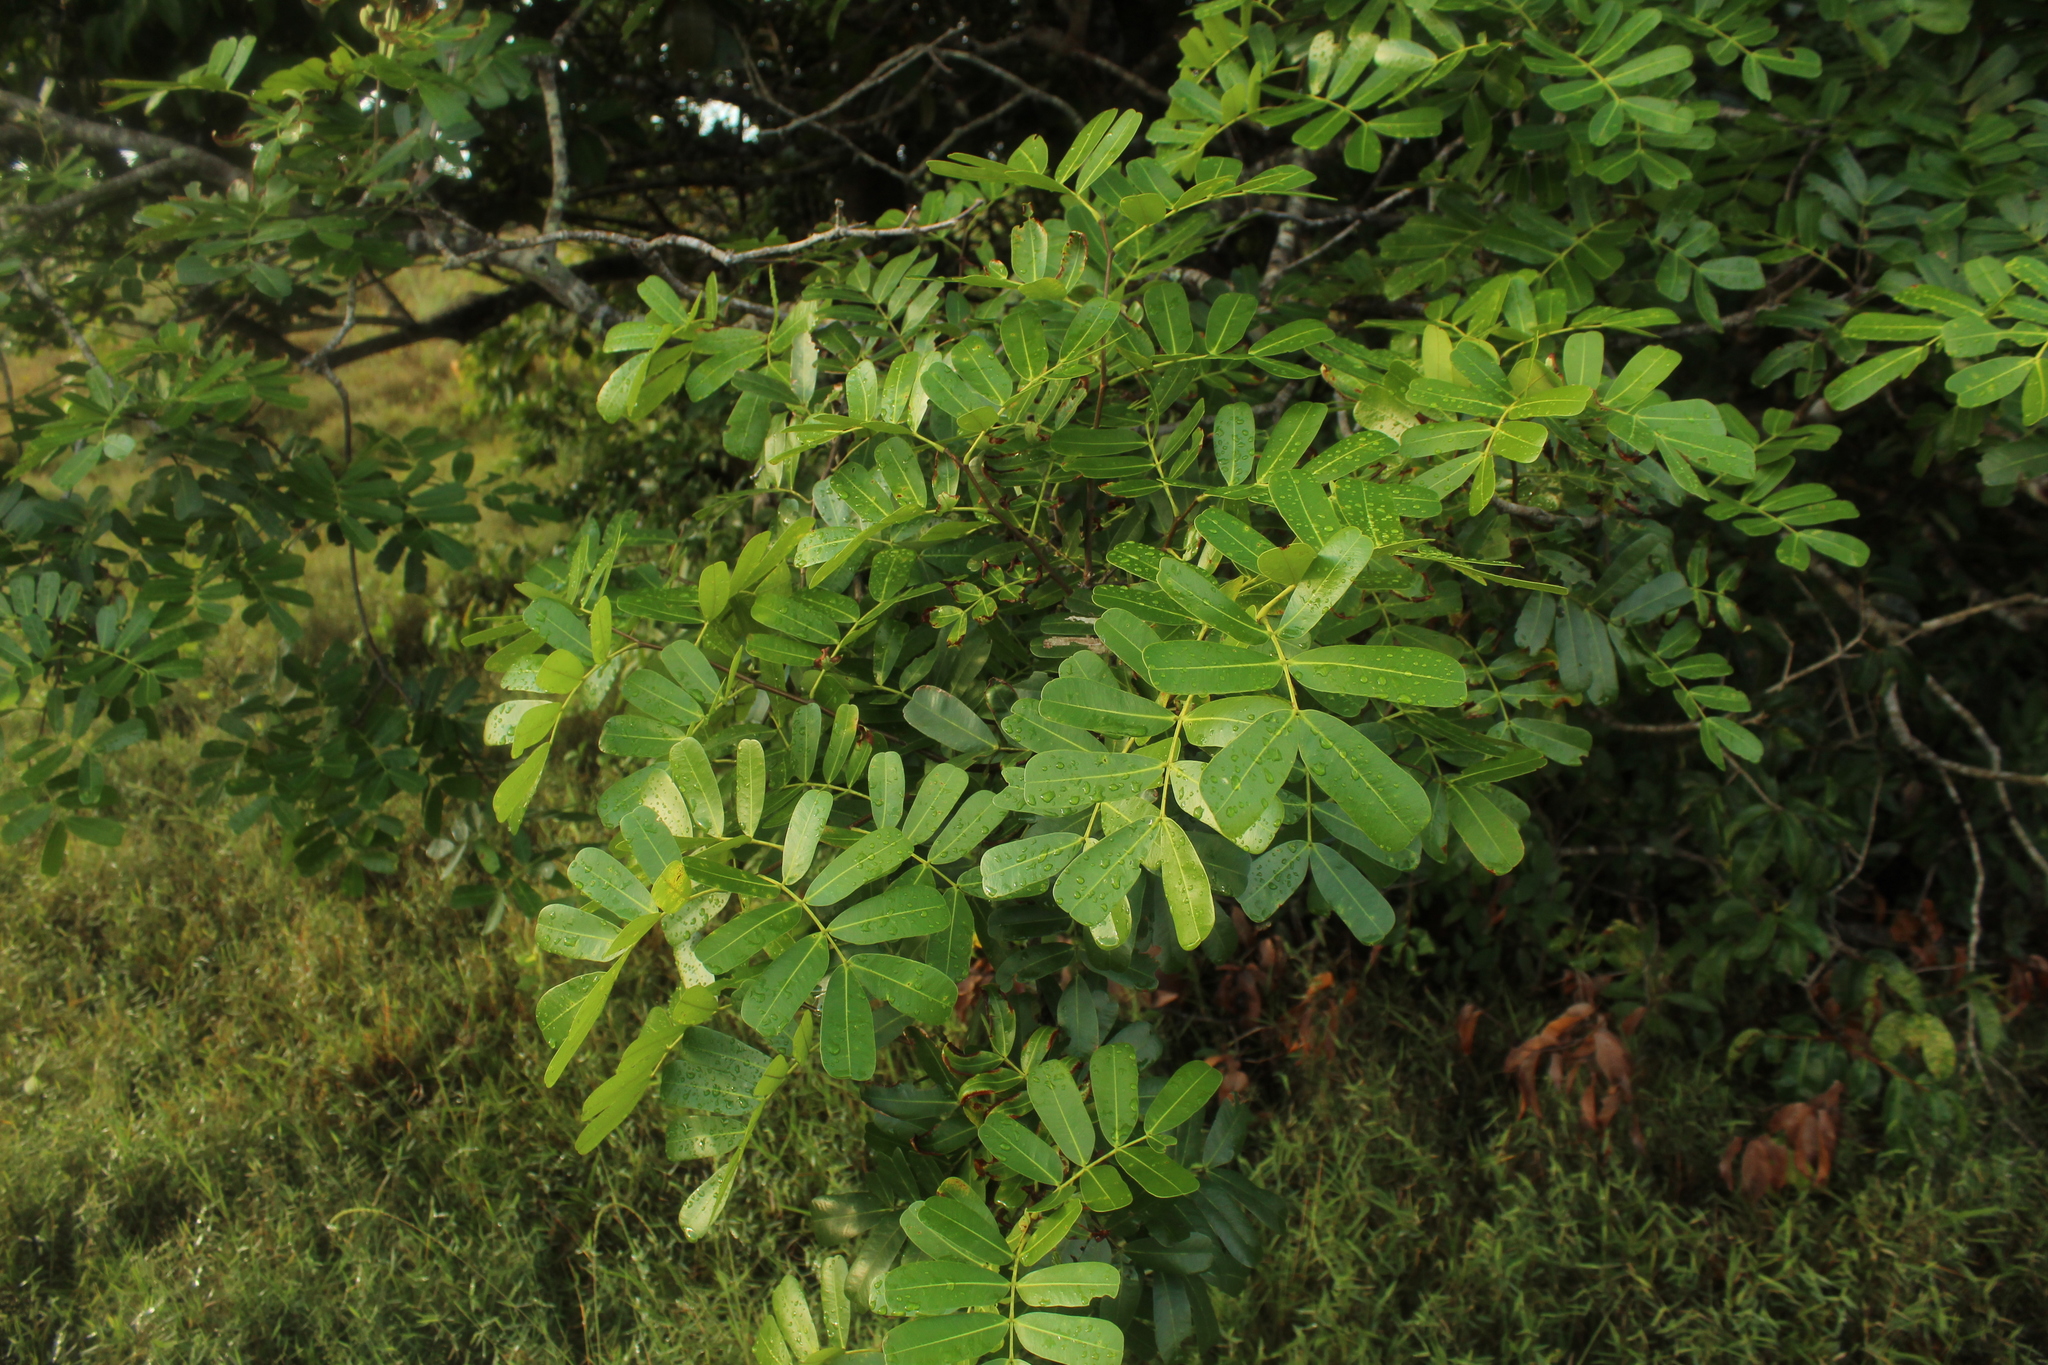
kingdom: Plantae
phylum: Tracheophyta
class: Magnoliopsida
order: Fabales
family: Fabaceae
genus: Macrolobium
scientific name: Macrolobium multijugum
